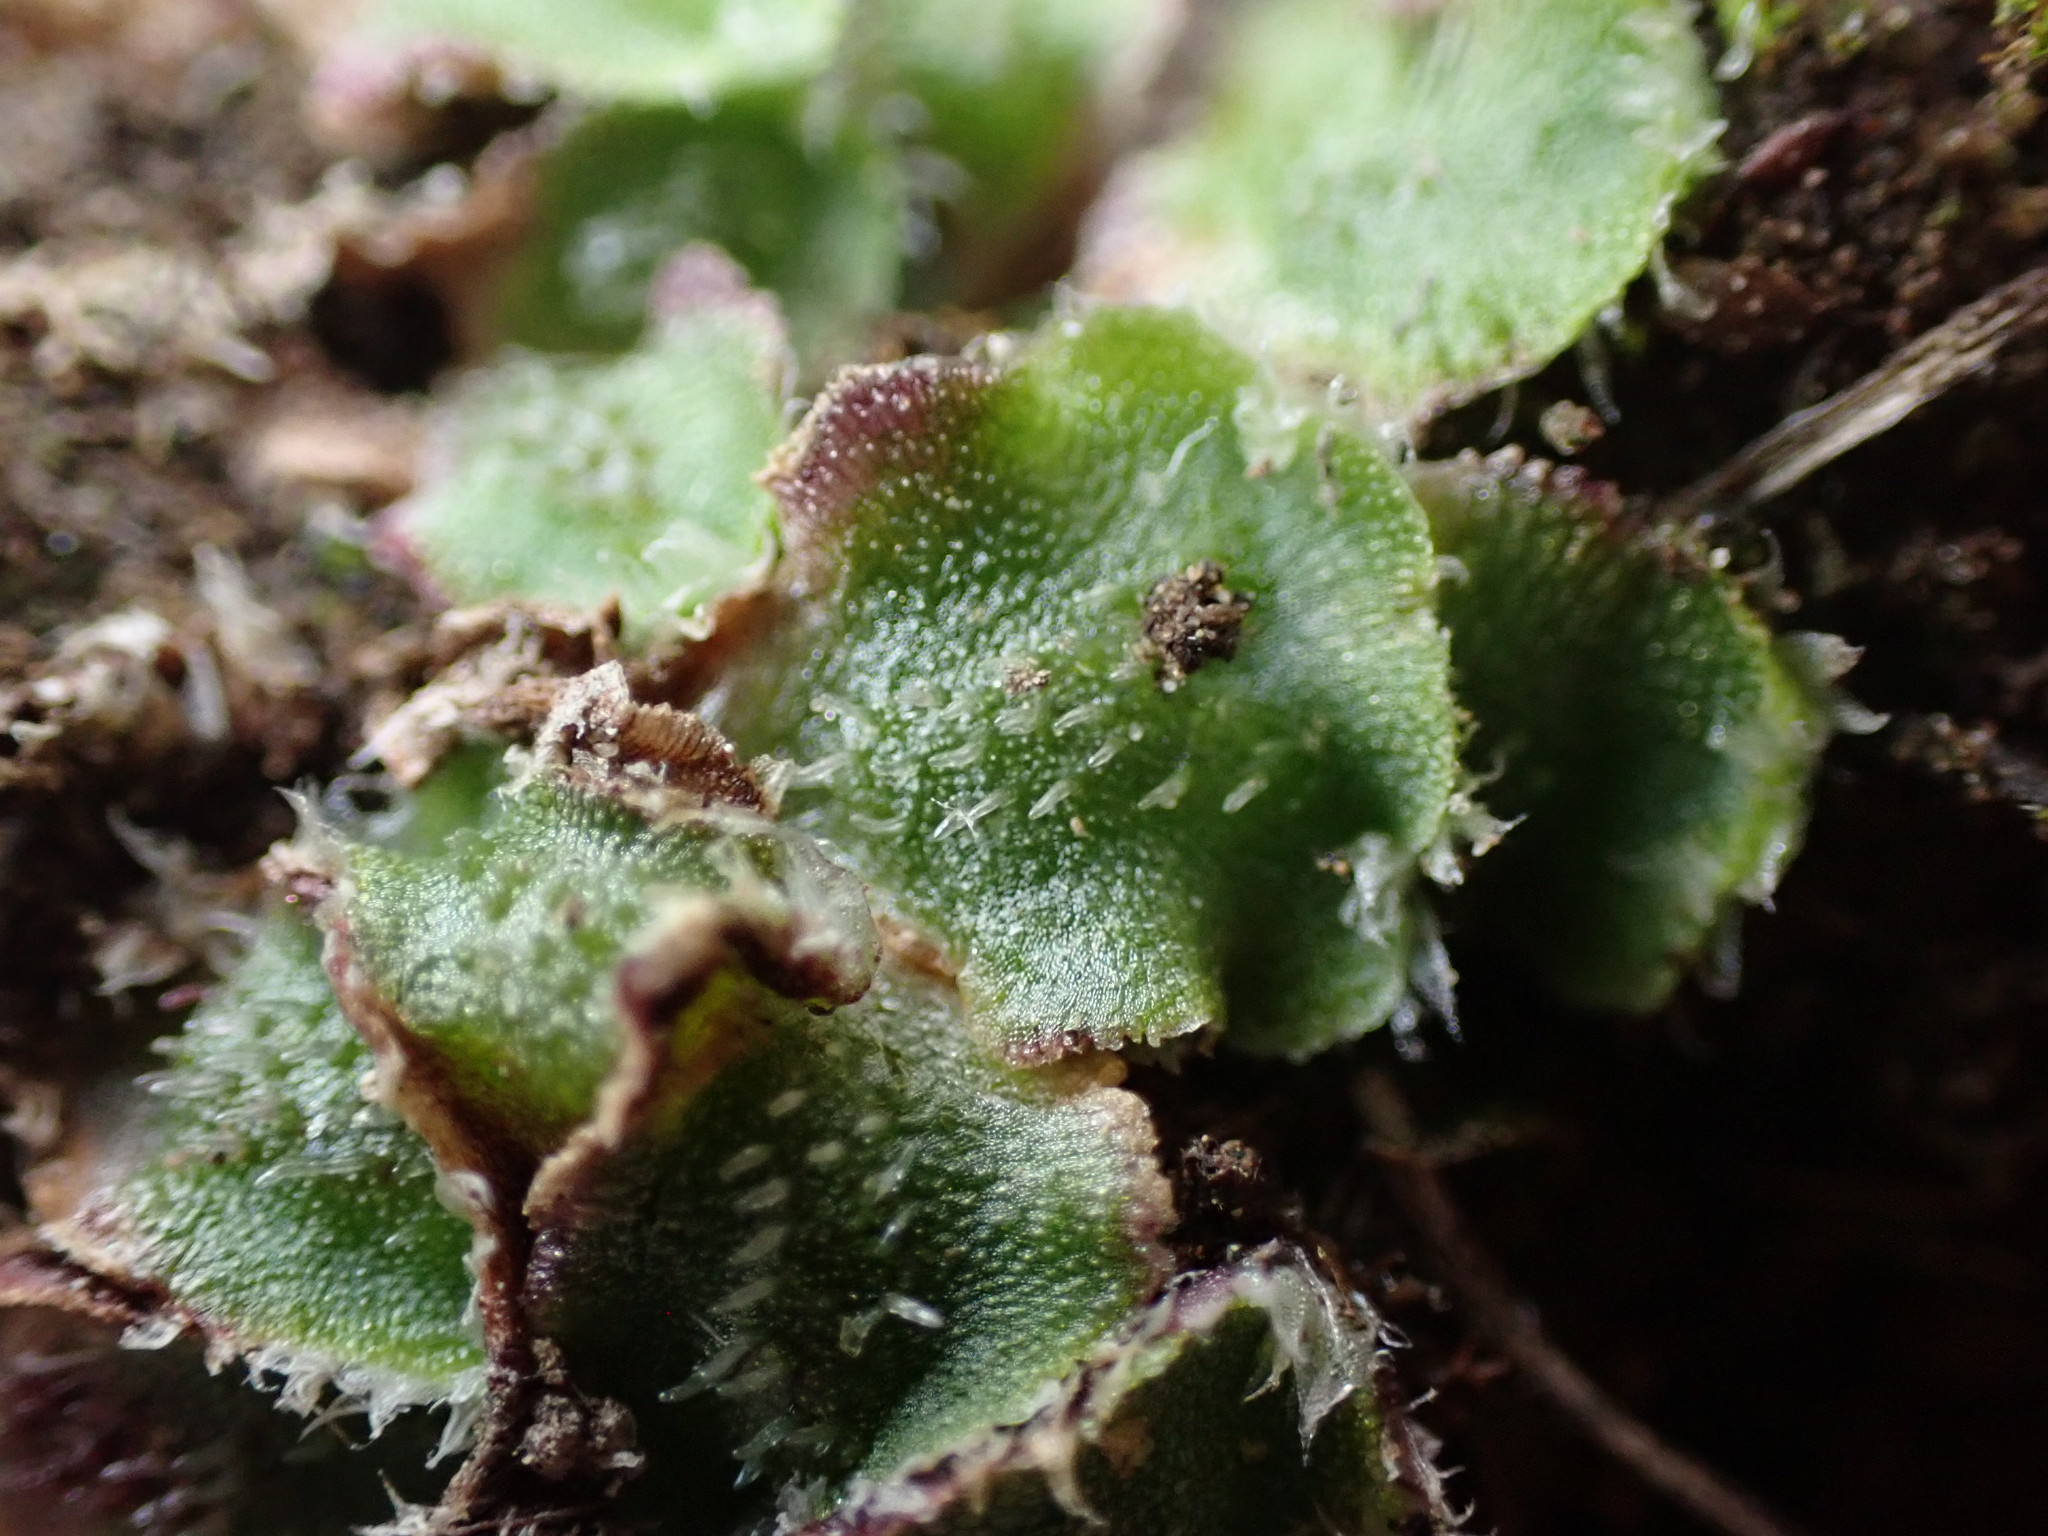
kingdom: Plantae
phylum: Marchantiophyta
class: Marchantiopsida
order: Marchantiales
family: Cleveaceae
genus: Clevea
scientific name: Clevea hyalina
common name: Hyaline liverwort
